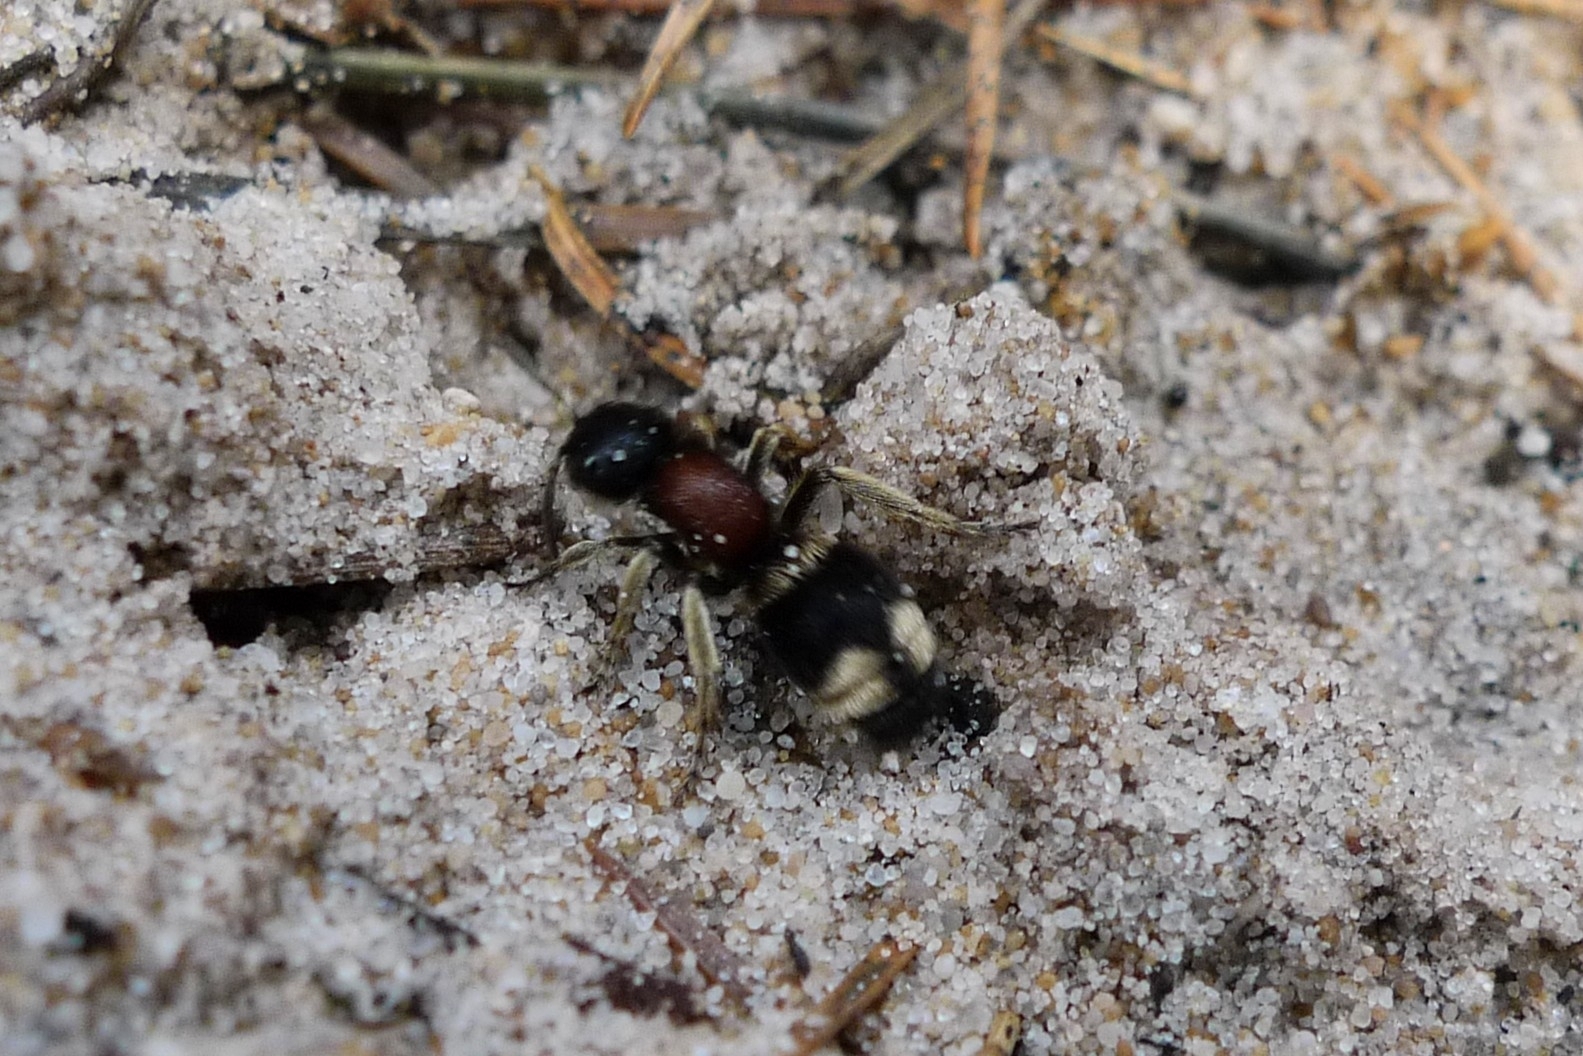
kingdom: Animalia
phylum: Arthropoda
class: Insecta
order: Hymenoptera
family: Mutillidae
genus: Mutilla
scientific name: Mutilla marginata
